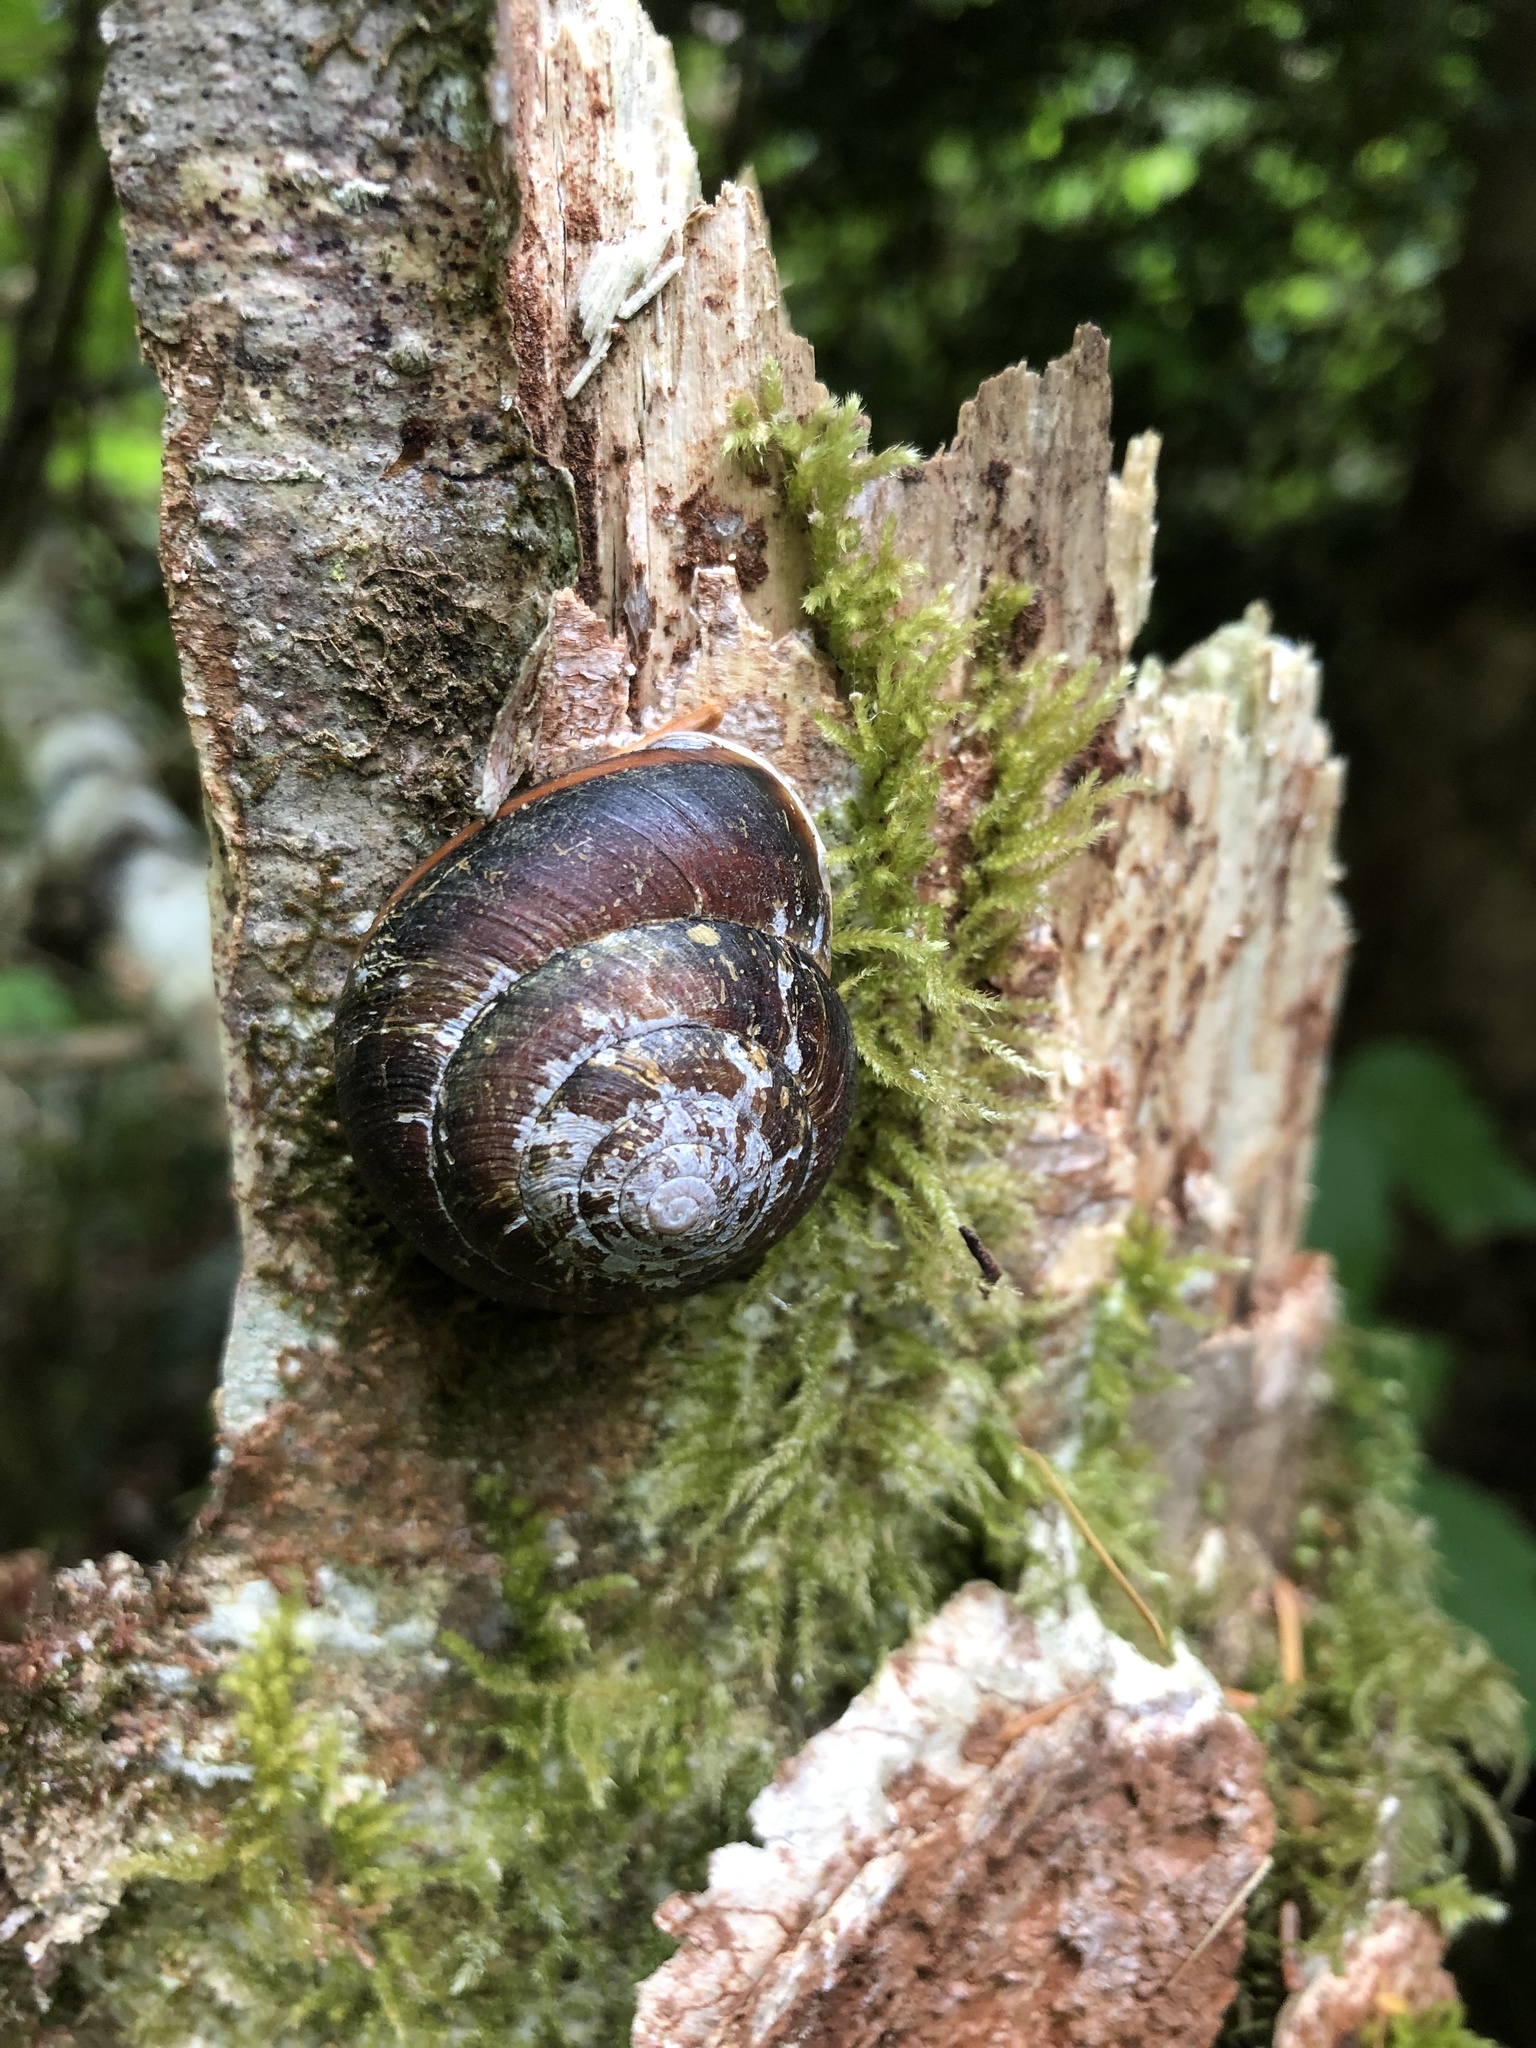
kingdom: Animalia
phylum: Mollusca
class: Gastropoda
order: Stylommatophora
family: Xanthonychidae
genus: Monadenia
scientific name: Monadenia fidelis
